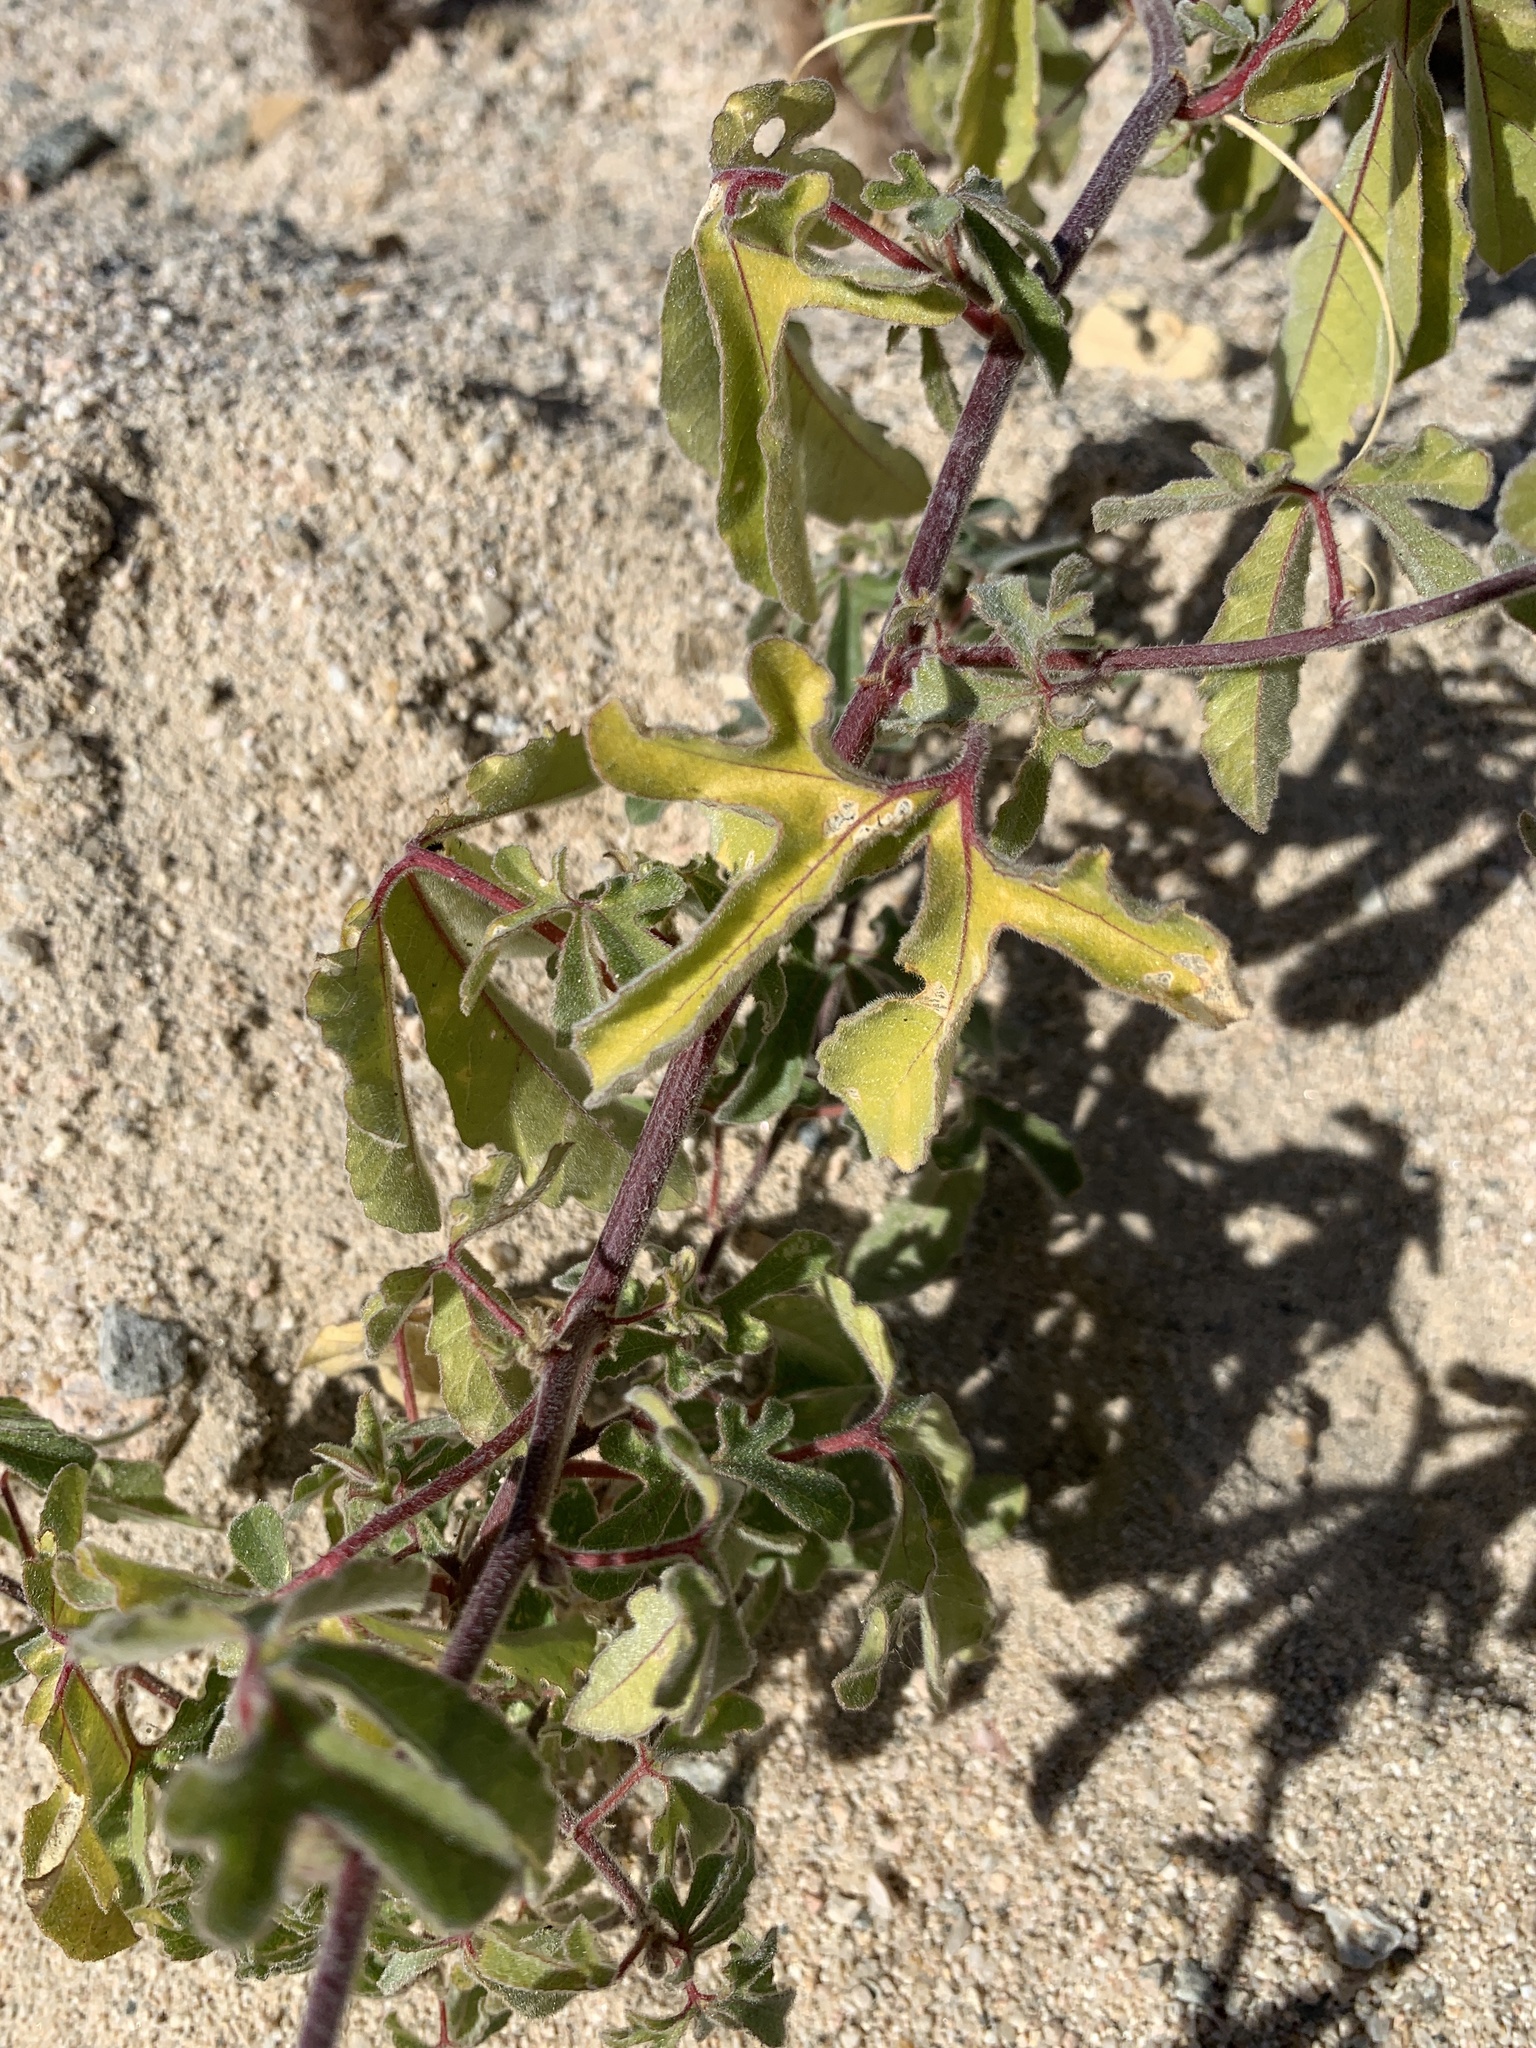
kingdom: Plantae
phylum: Tracheophyta
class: Magnoliopsida
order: Malpighiales
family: Passifloraceae
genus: Passiflora
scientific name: Passiflora pentaschista
